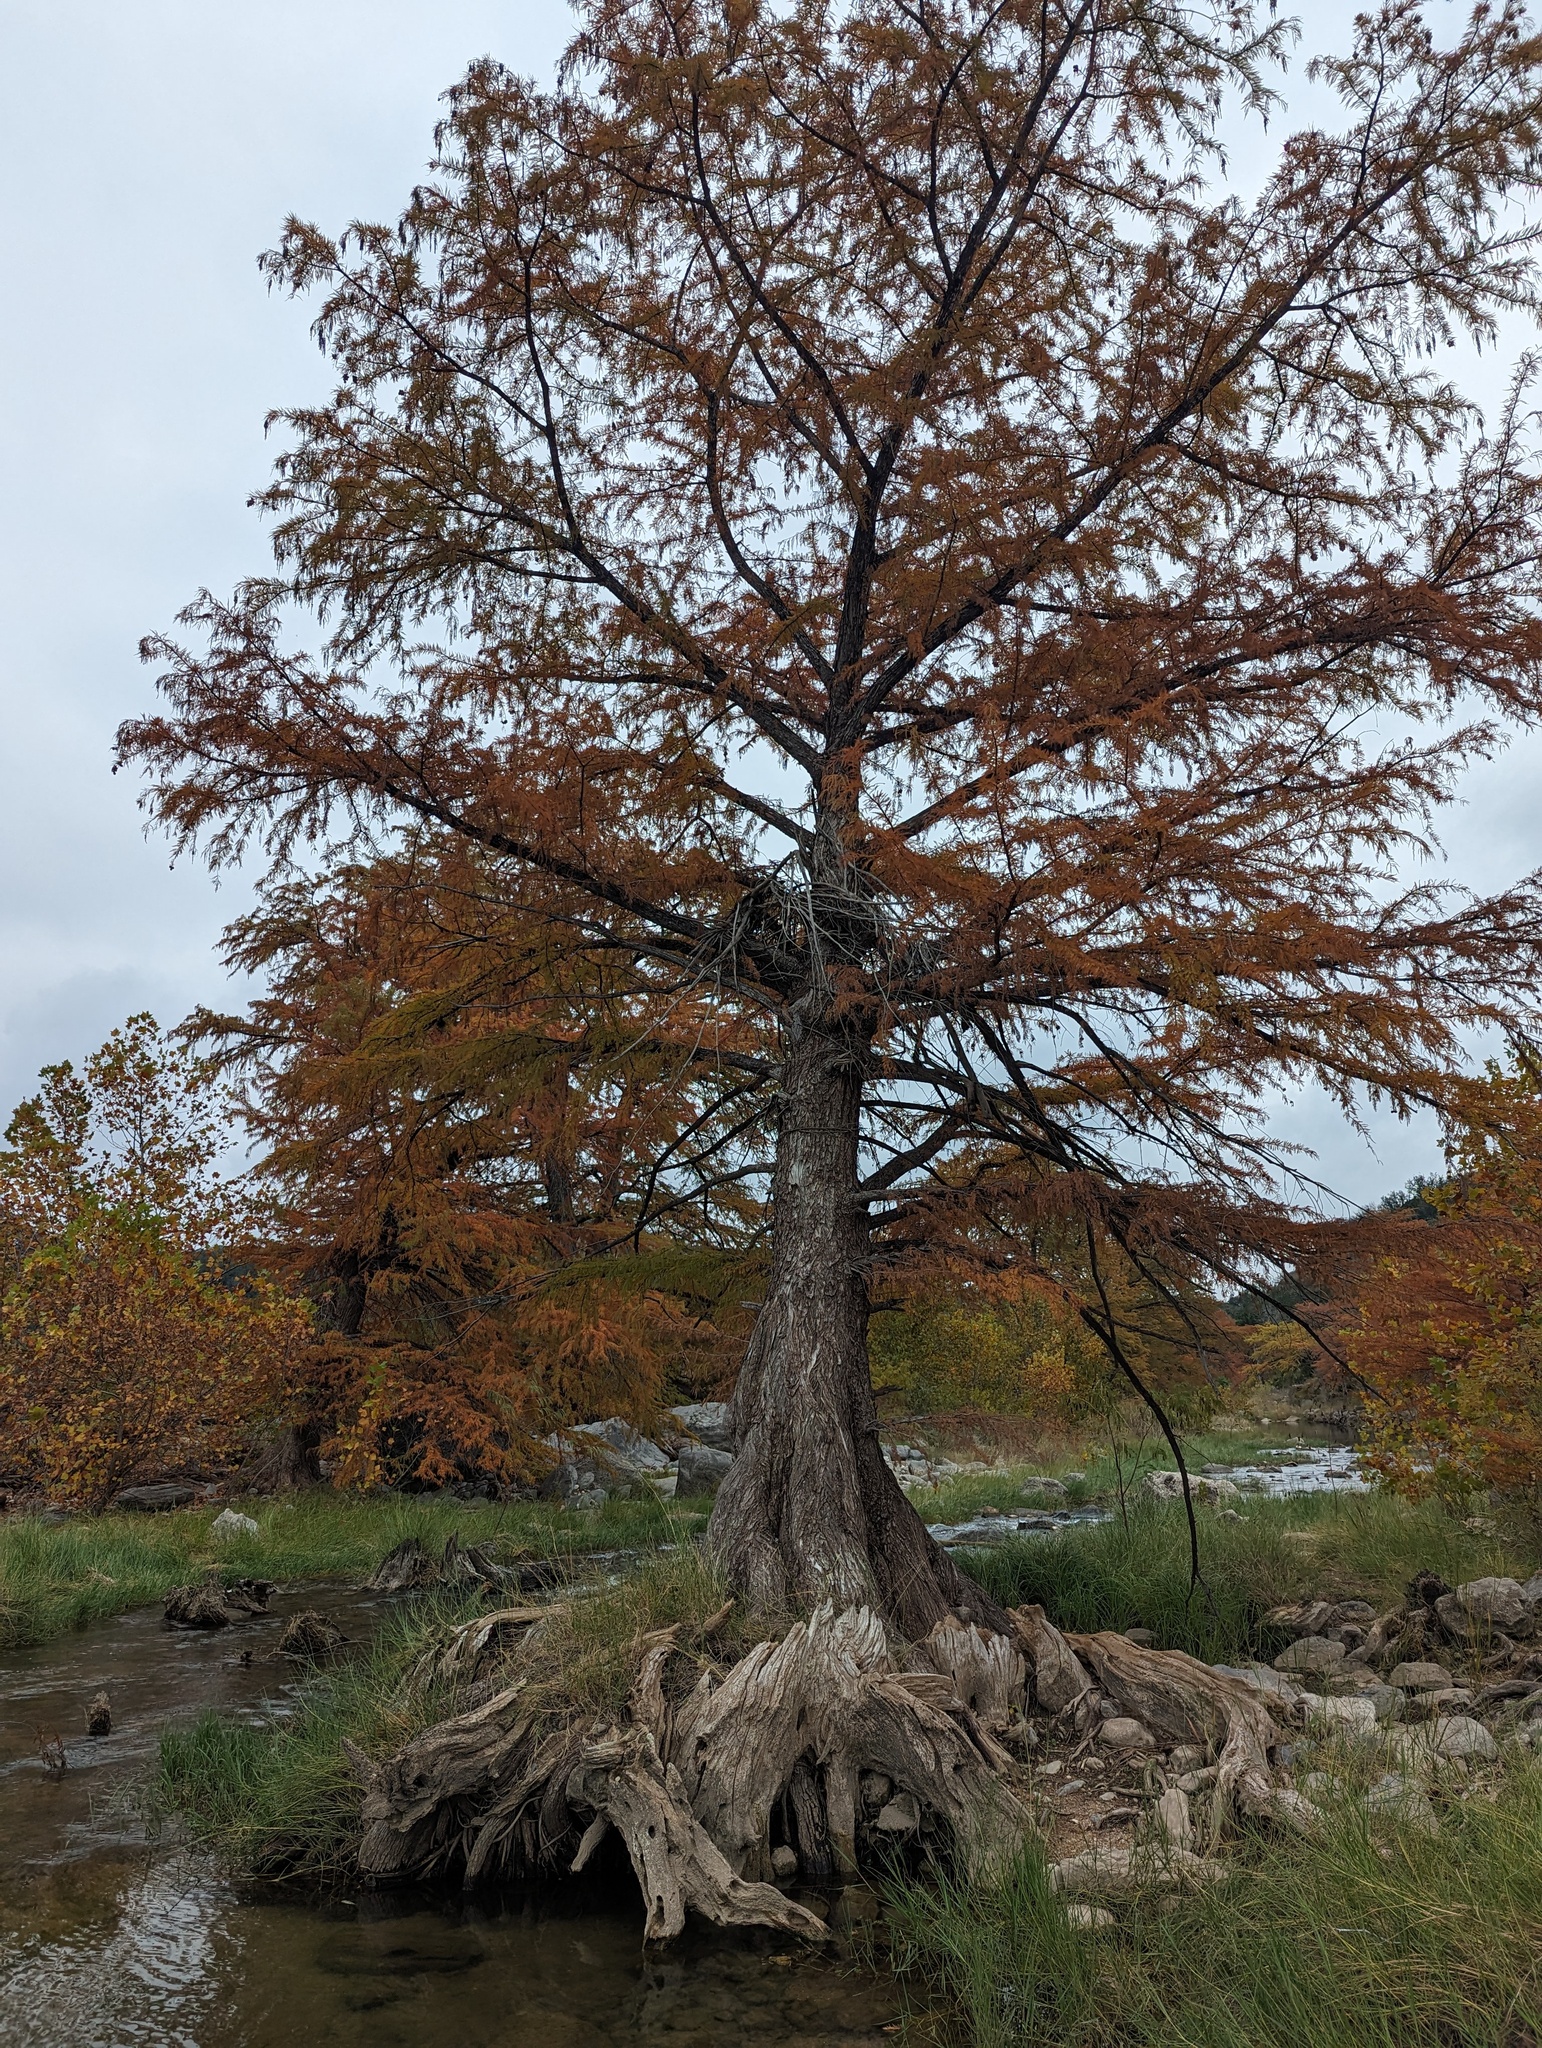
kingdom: Plantae
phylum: Tracheophyta
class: Pinopsida
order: Pinales
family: Cupressaceae
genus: Taxodium
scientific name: Taxodium distichum
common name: Bald cypress
